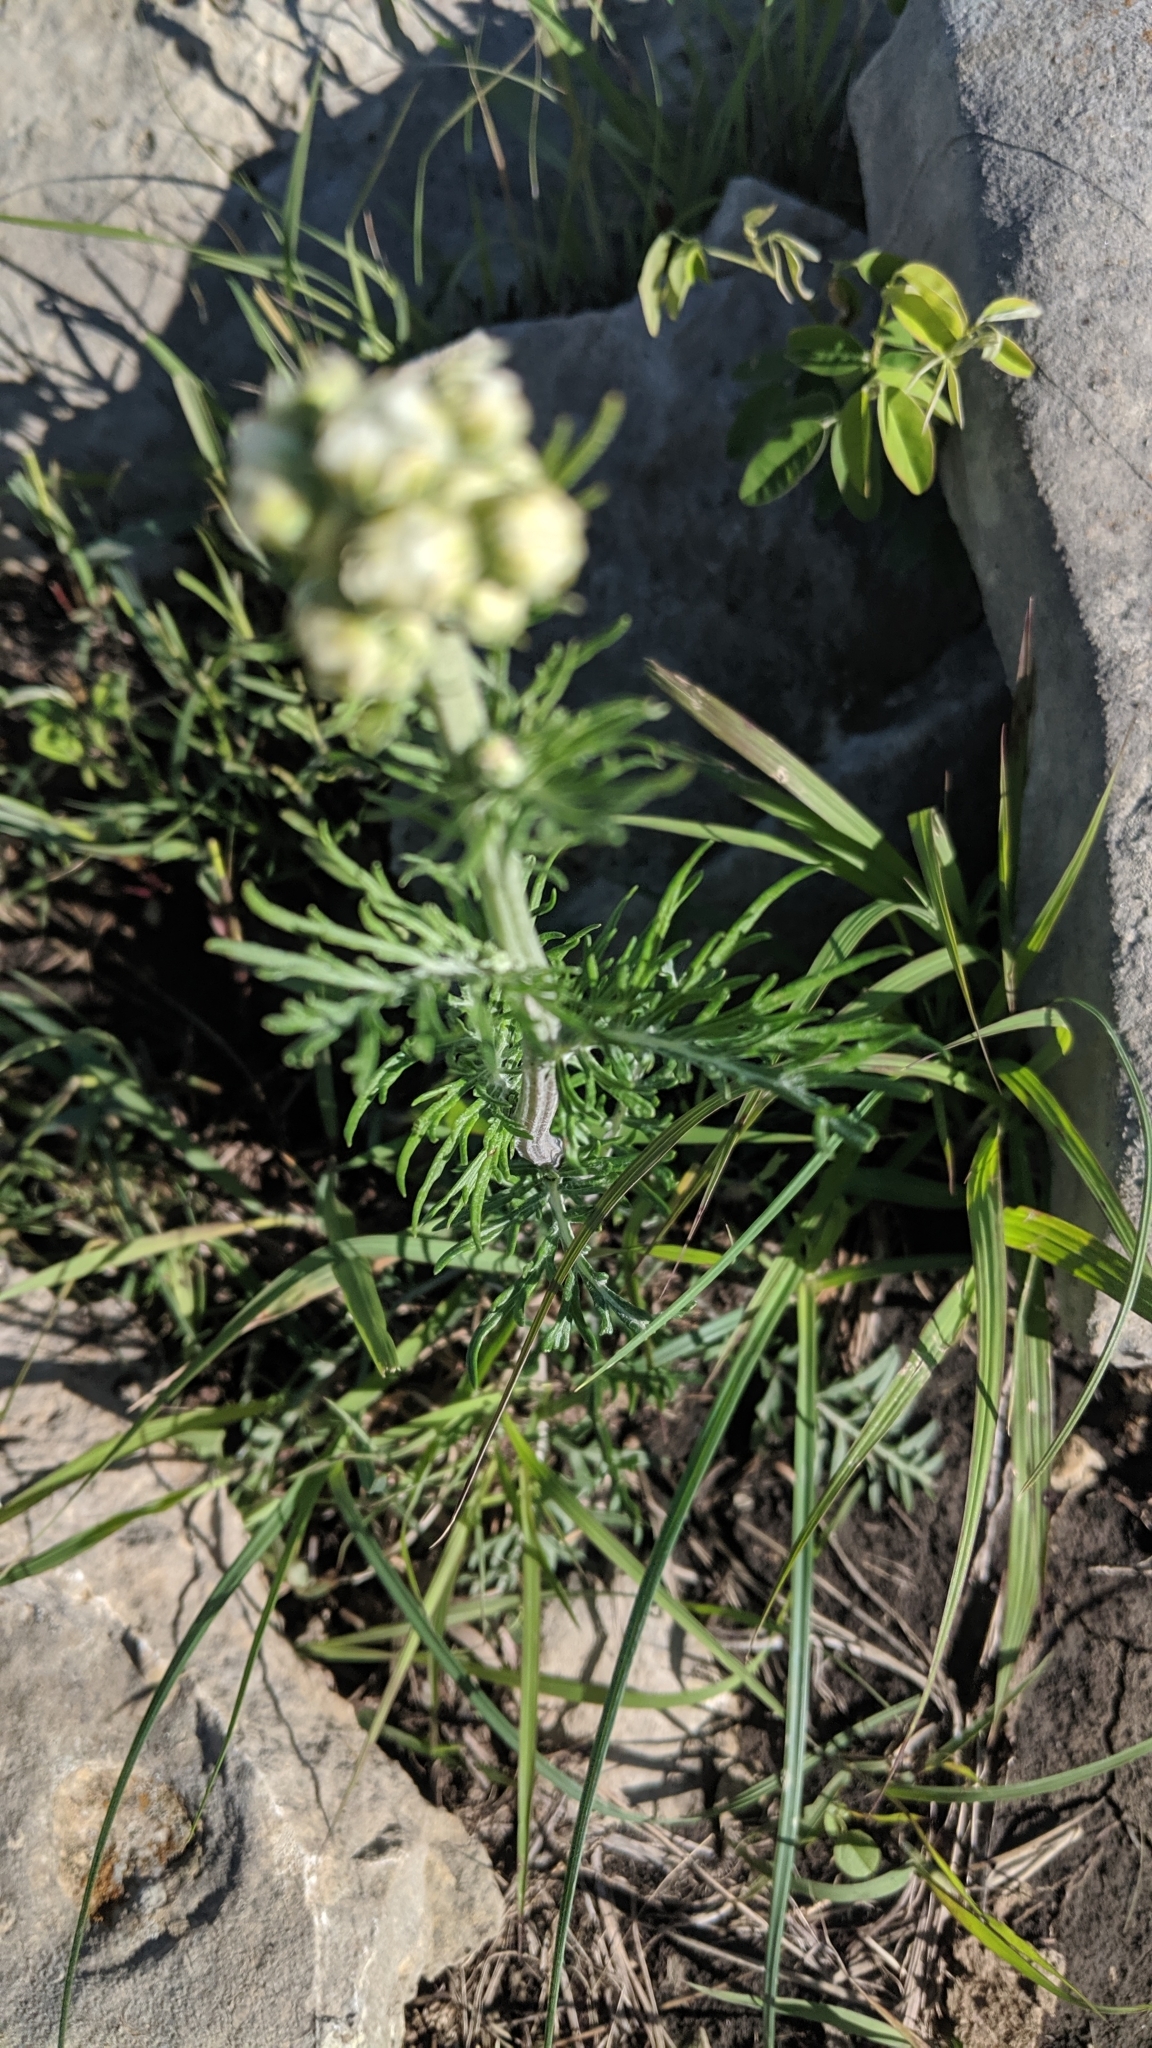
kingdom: Plantae
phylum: Tracheophyta
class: Magnoliopsida
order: Asterales
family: Asteraceae
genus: Hymenopappus
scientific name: Hymenopappus scabiosaeus
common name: Carolina woollywhite
